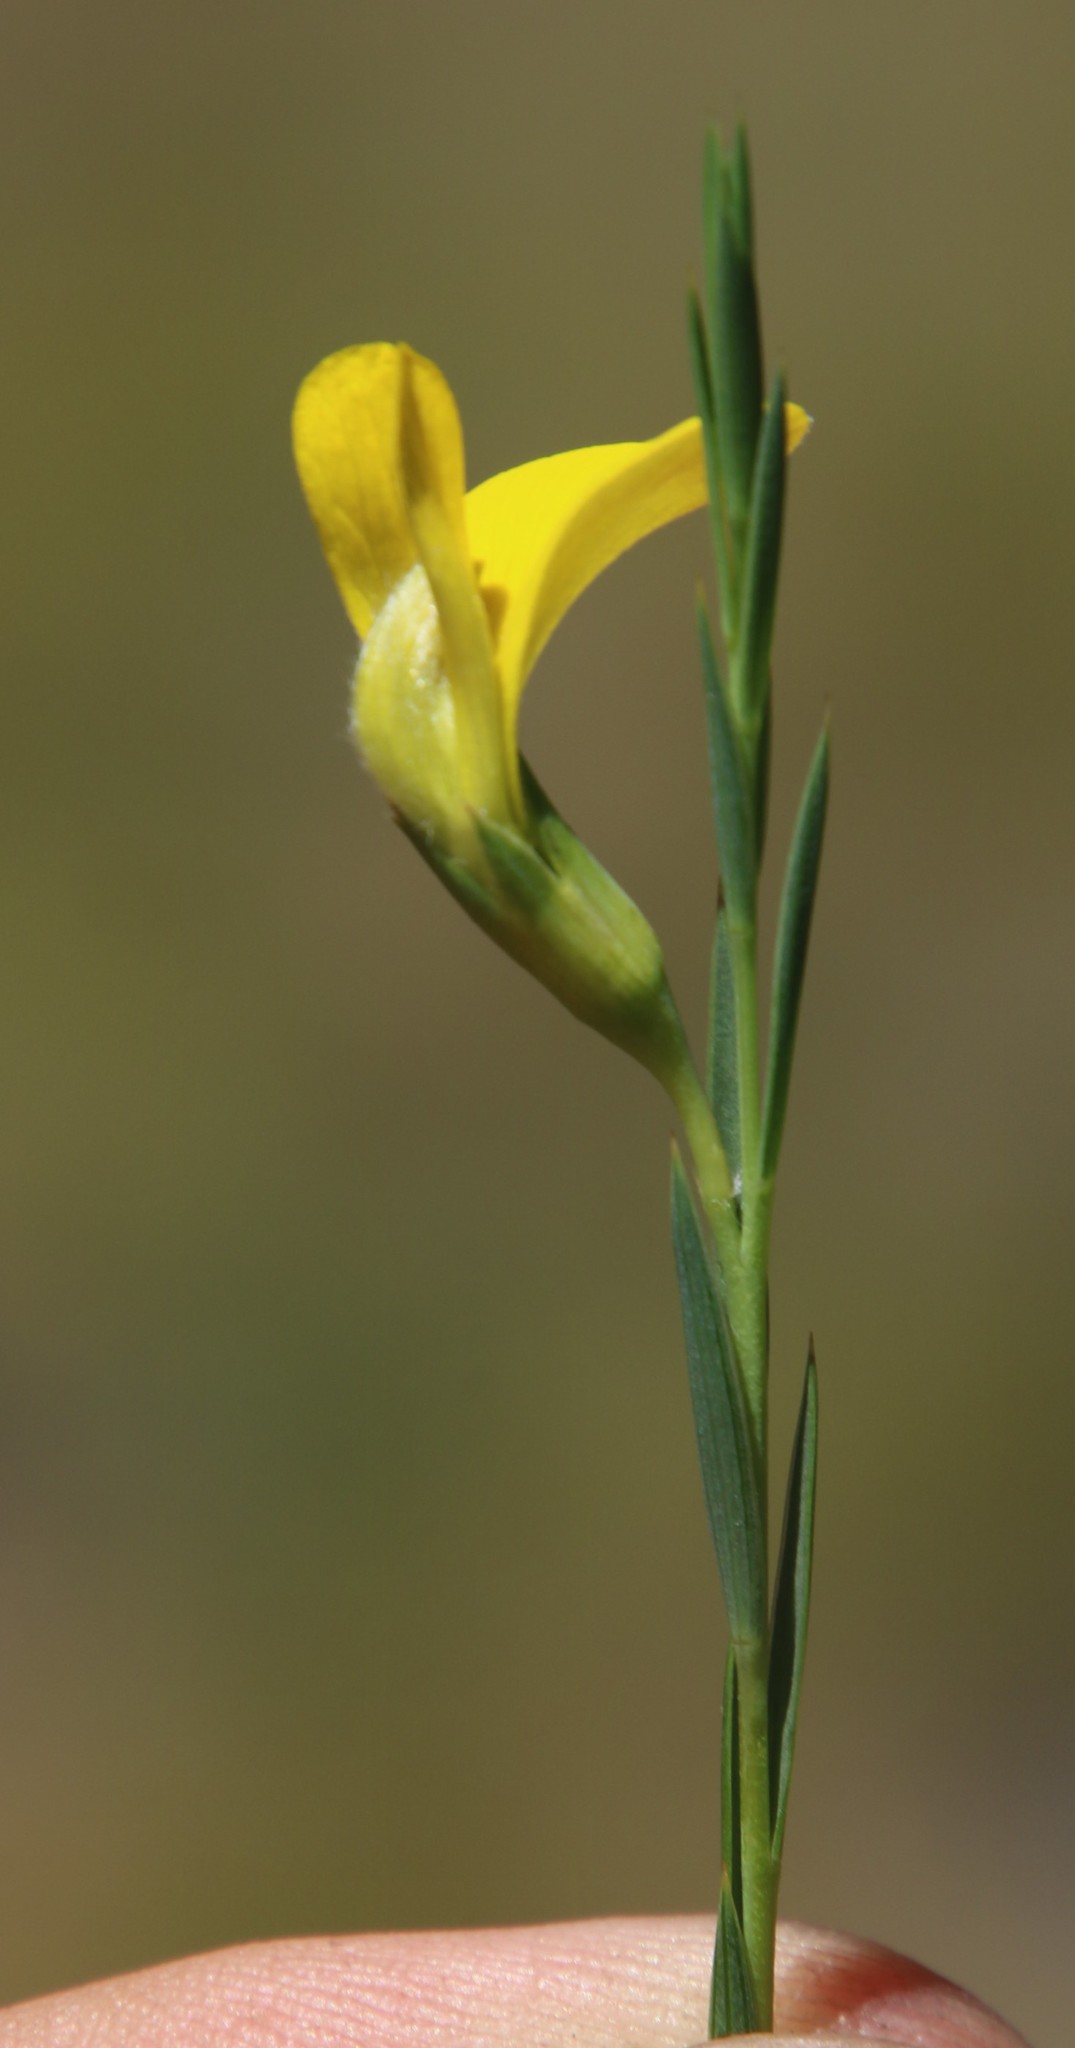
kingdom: Plantae
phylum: Tracheophyta
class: Magnoliopsida
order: Fabales
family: Fabaceae
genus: Aspalathus
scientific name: Aspalathus angustifolia
